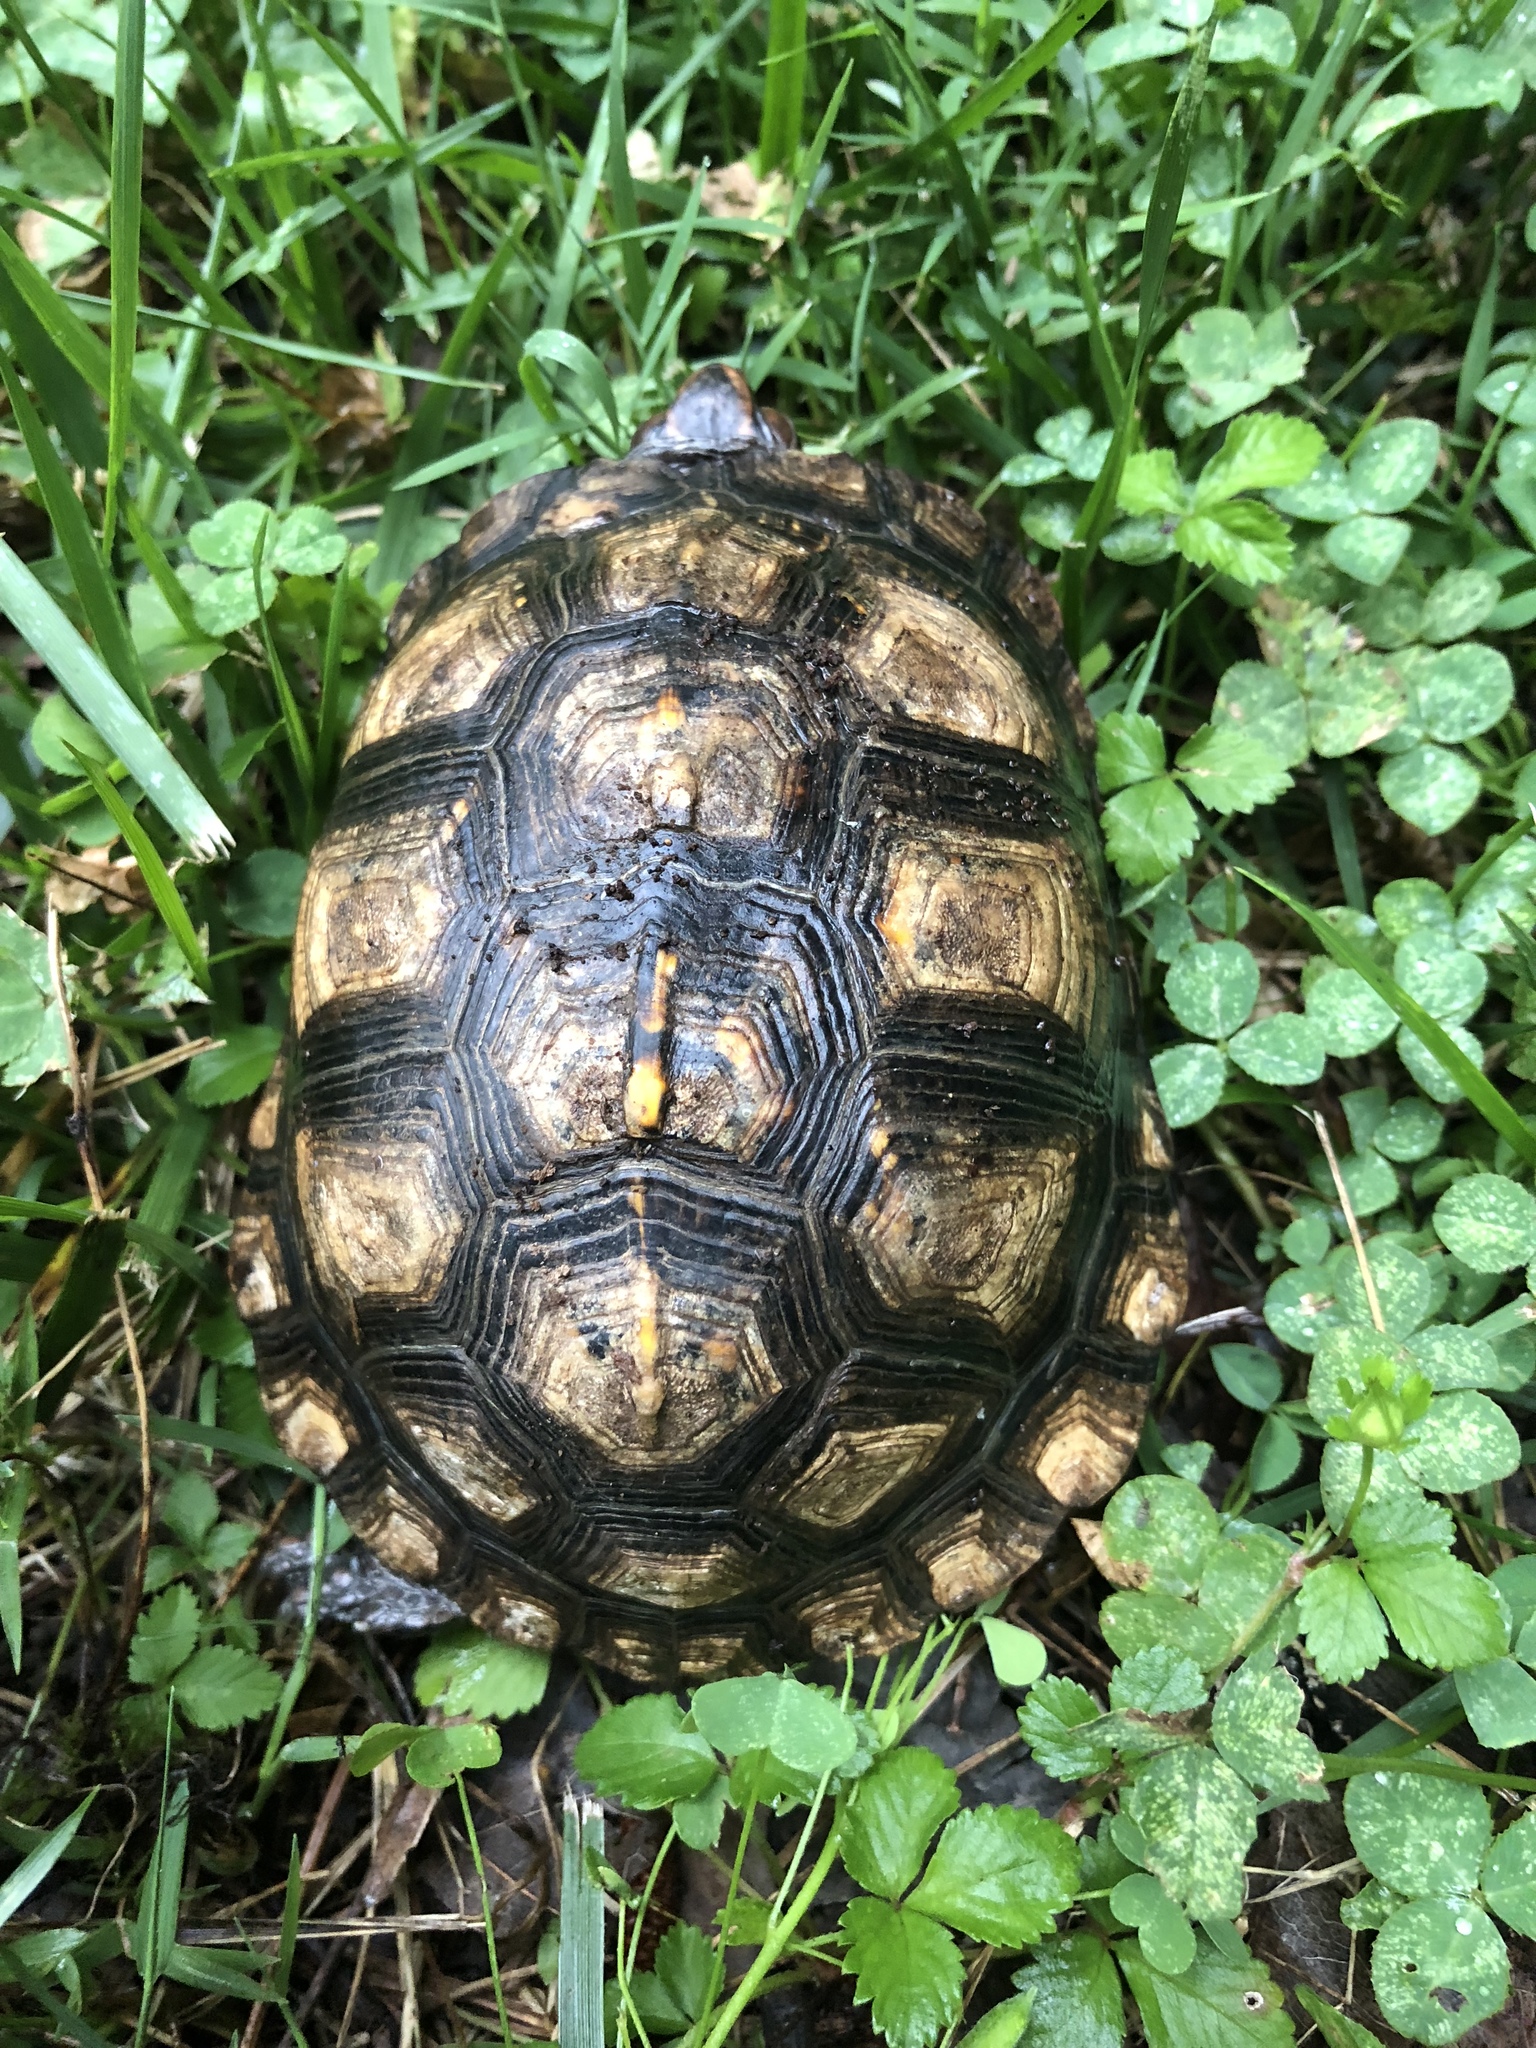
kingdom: Animalia
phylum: Chordata
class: Testudines
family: Emydidae
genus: Terrapene
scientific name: Terrapene carolina
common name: Common box turtle
